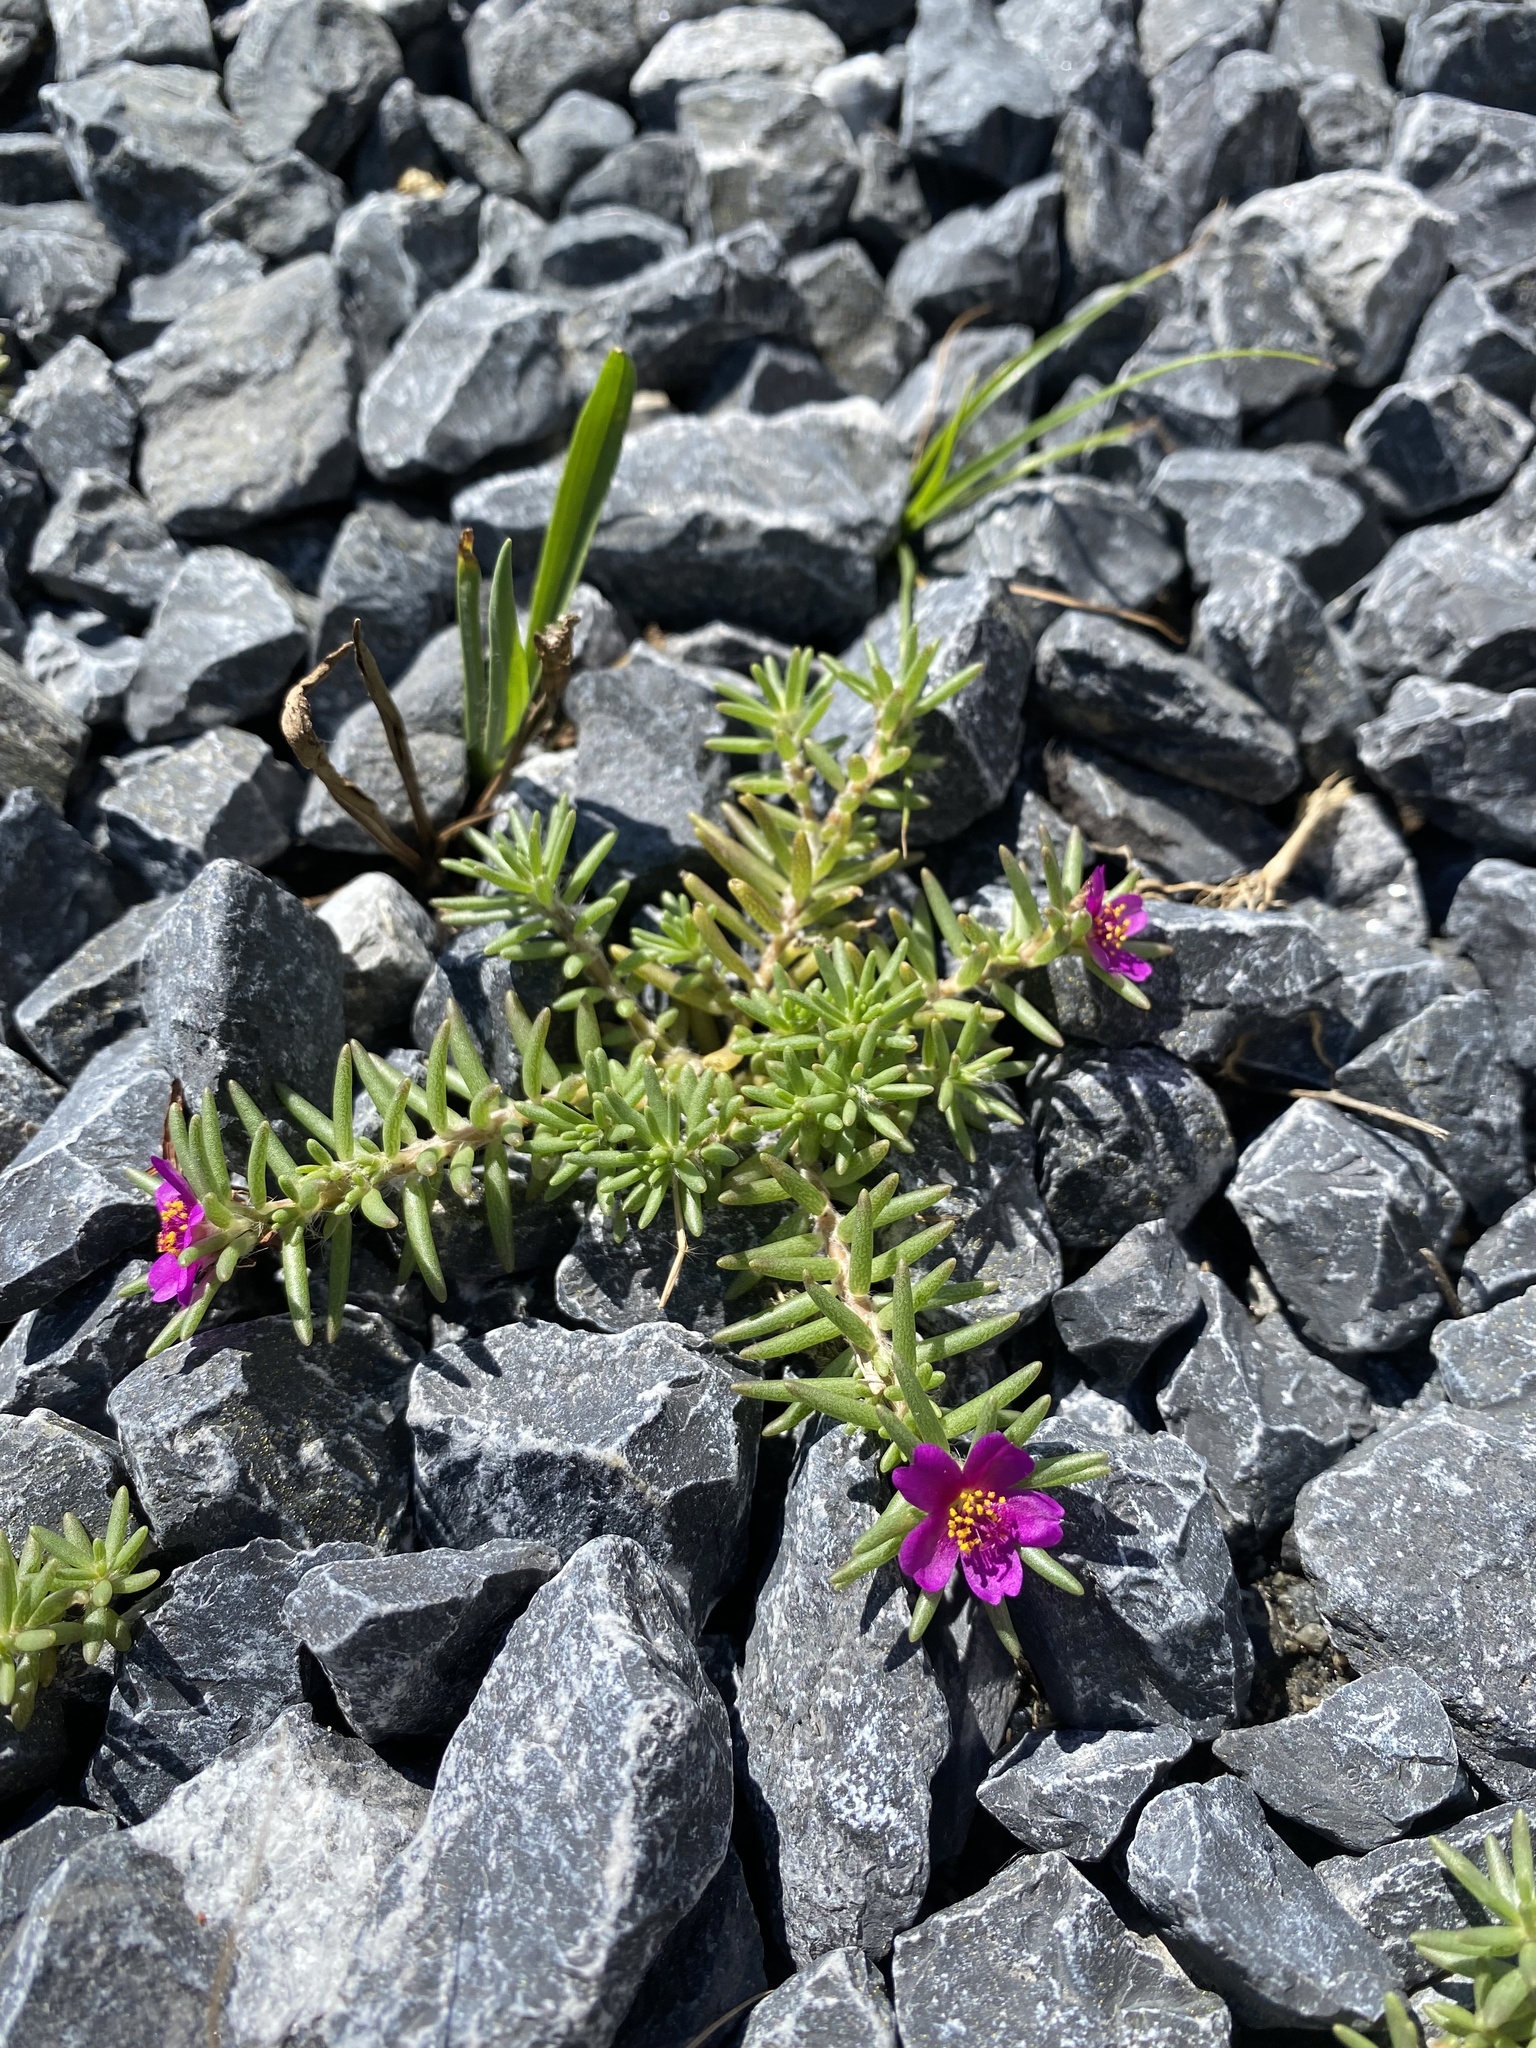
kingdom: Plantae
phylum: Tracheophyta
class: Magnoliopsida
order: Caryophyllales
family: Portulacaceae
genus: Portulaca
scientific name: Portulaca pilosa
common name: Kiss me quick
